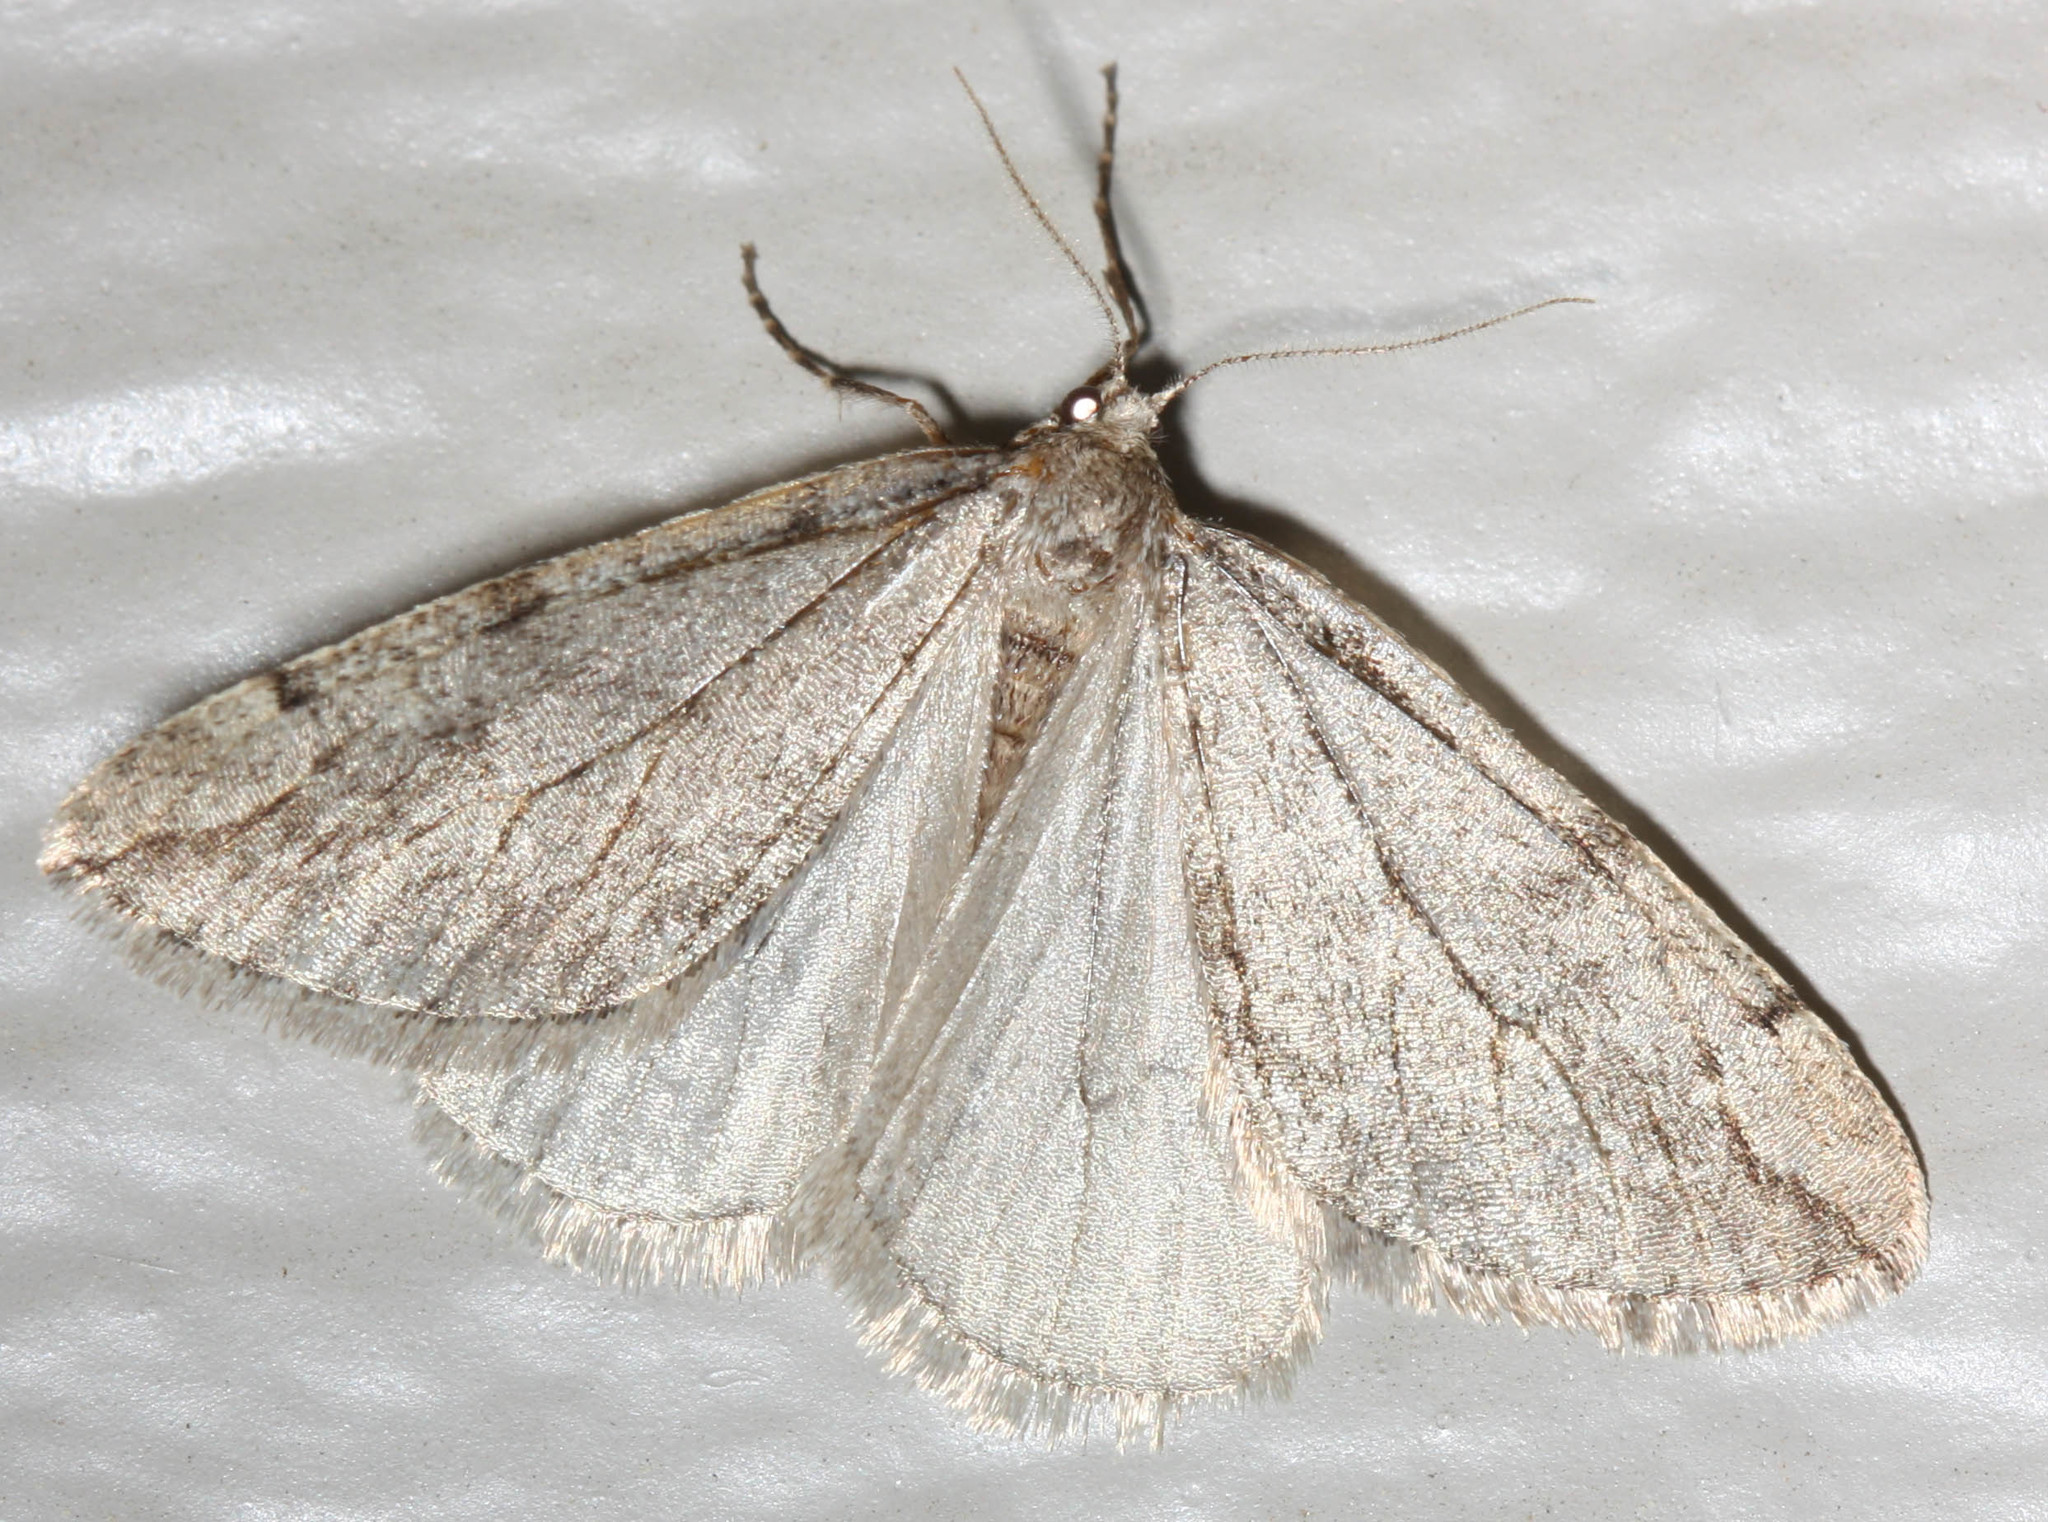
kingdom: Animalia
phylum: Arthropoda
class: Insecta
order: Lepidoptera
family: Geometridae
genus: Paleacrita
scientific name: Paleacrita vernata
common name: Spring cankerworm
